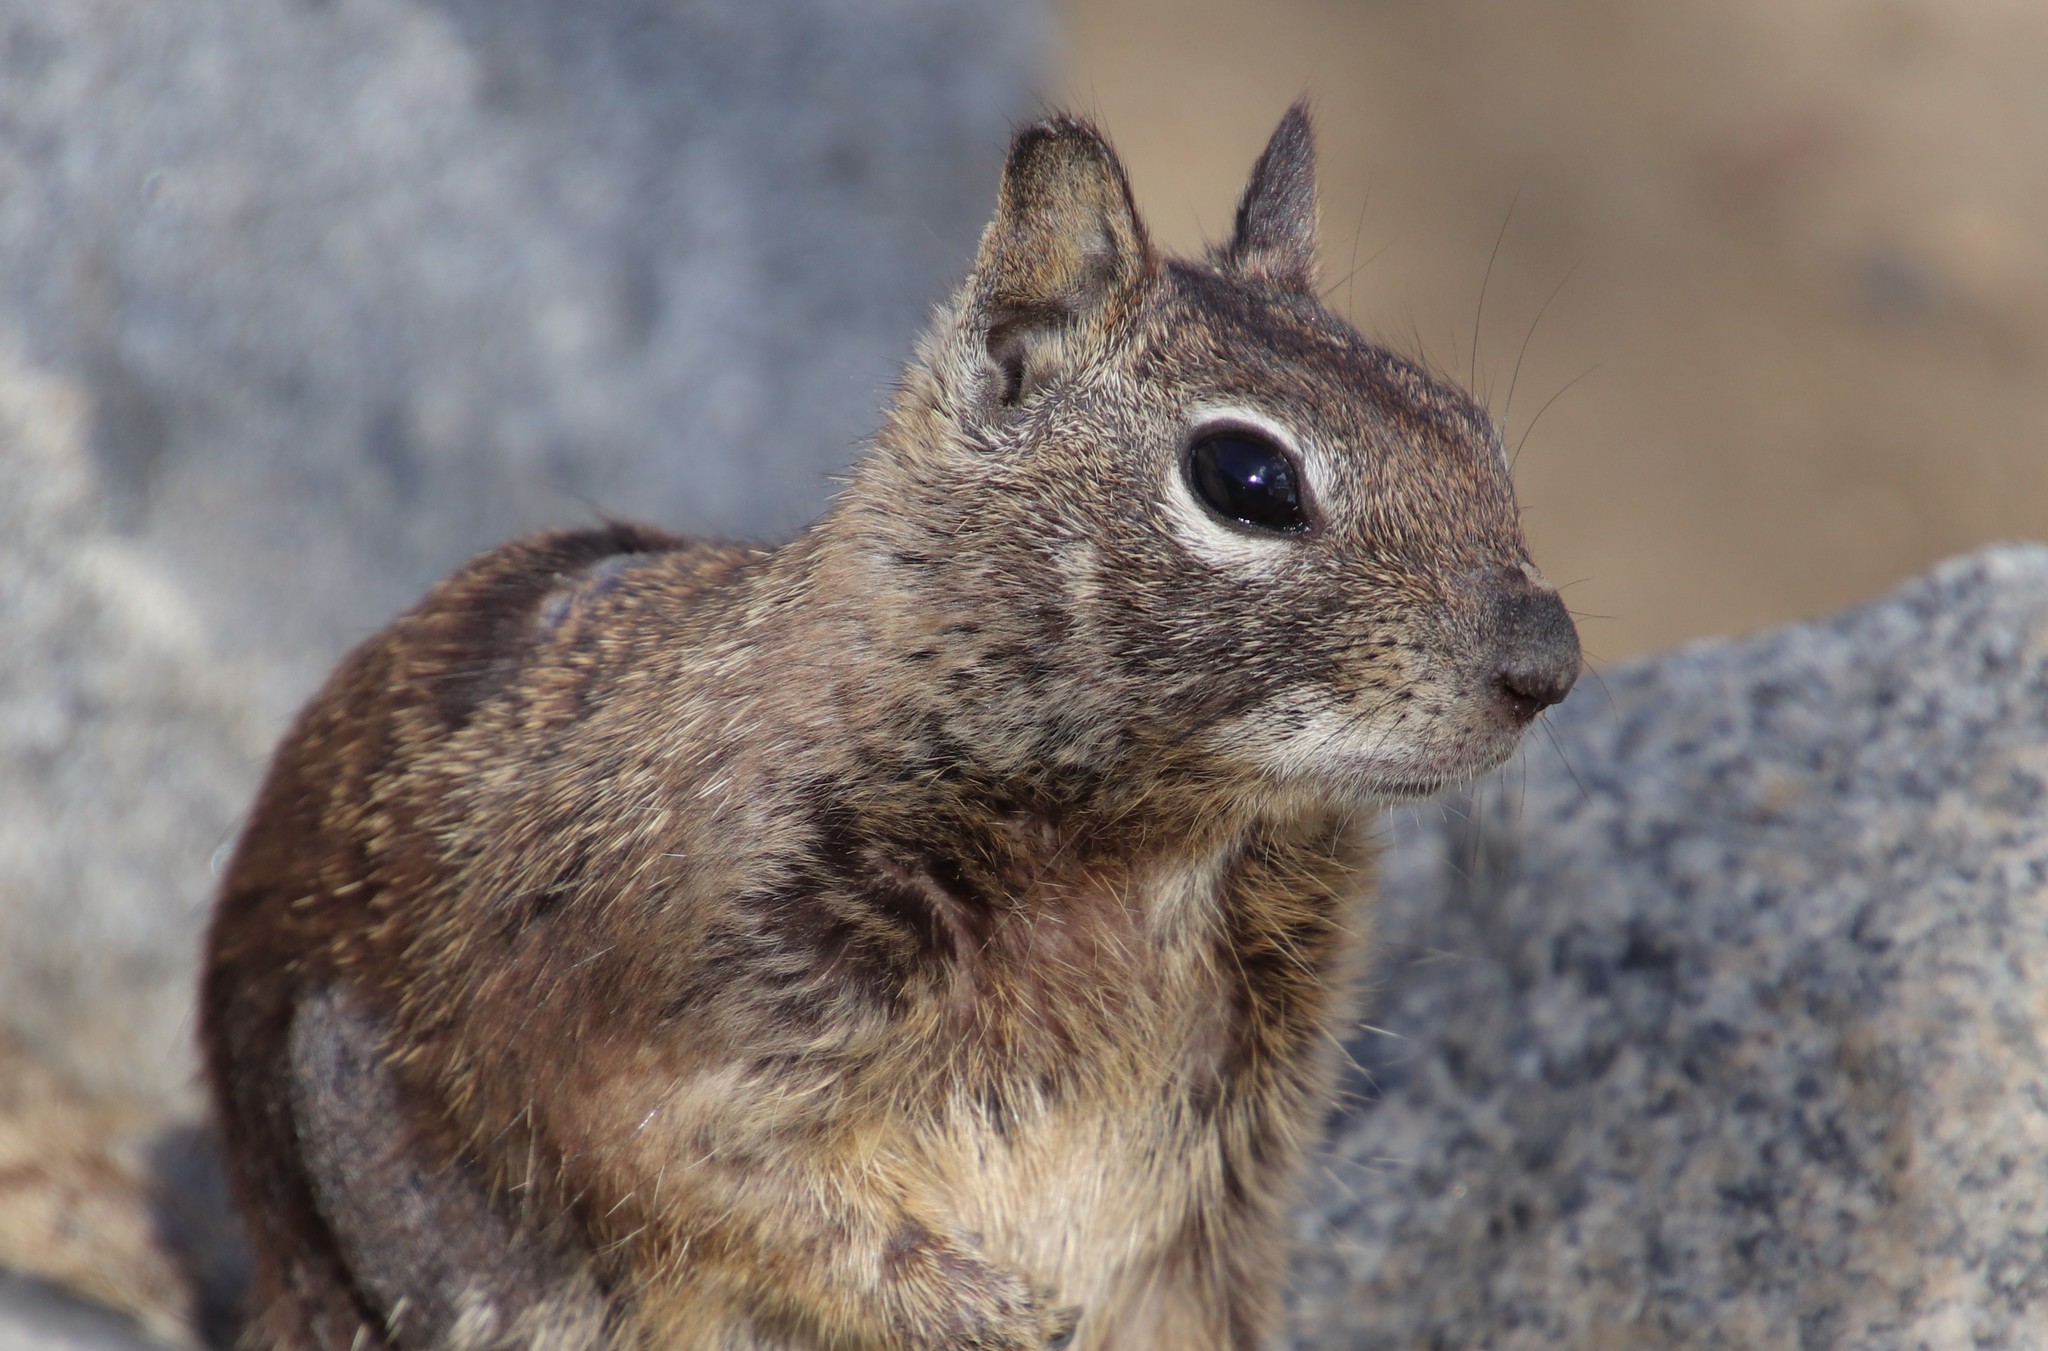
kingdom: Animalia
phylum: Chordata
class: Mammalia
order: Rodentia
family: Sciuridae
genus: Otospermophilus
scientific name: Otospermophilus beecheyi
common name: California ground squirrel
